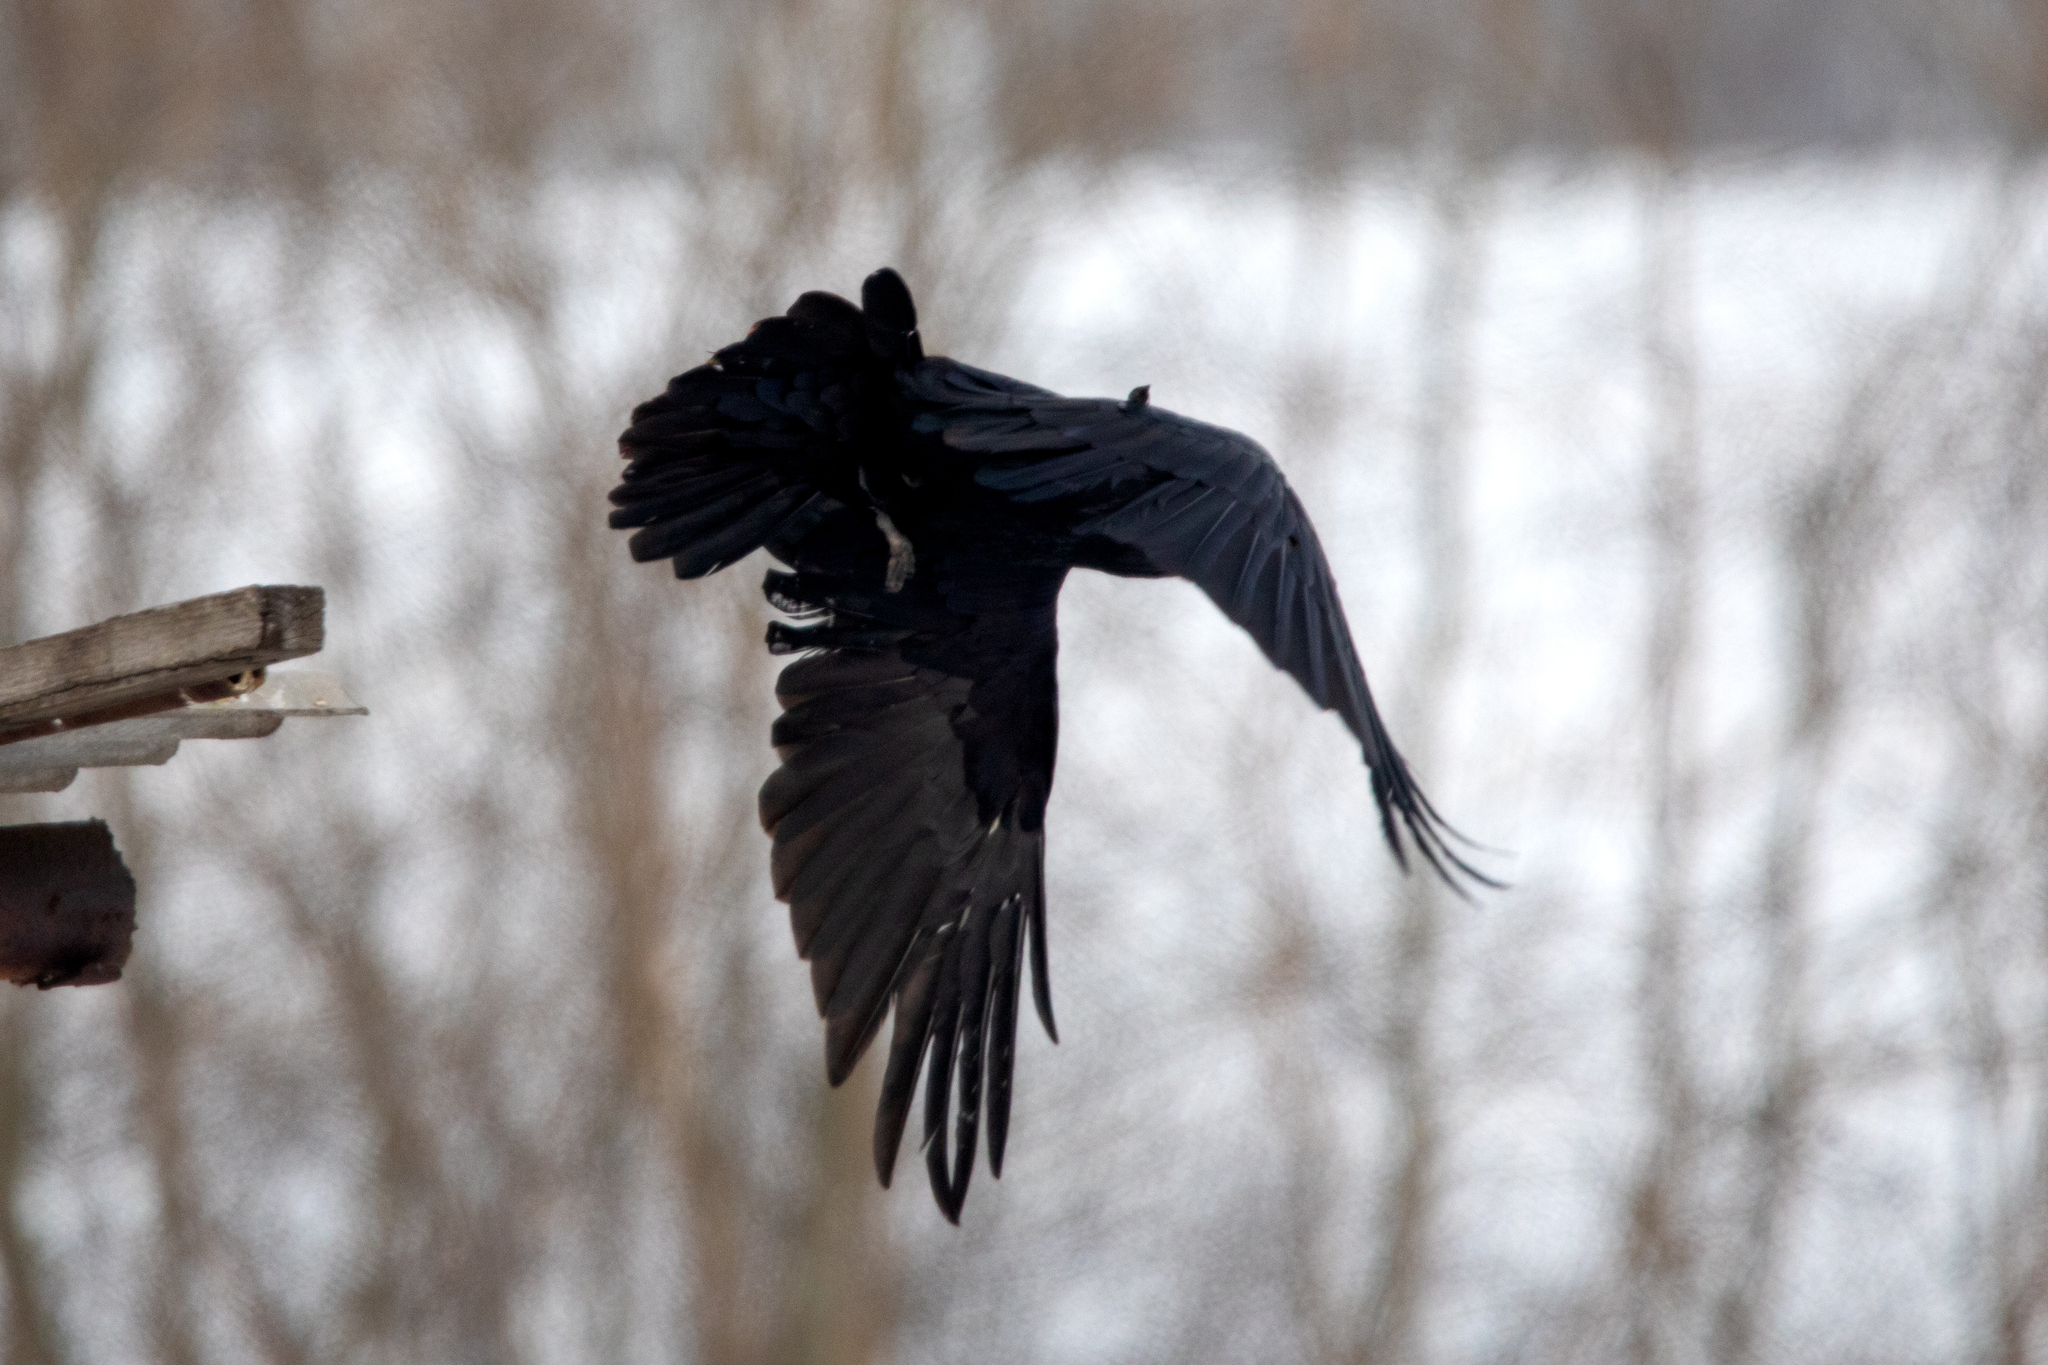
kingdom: Animalia
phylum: Chordata
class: Aves
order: Passeriformes
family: Corvidae
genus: Corvus
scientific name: Corvus corax
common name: Common raven
